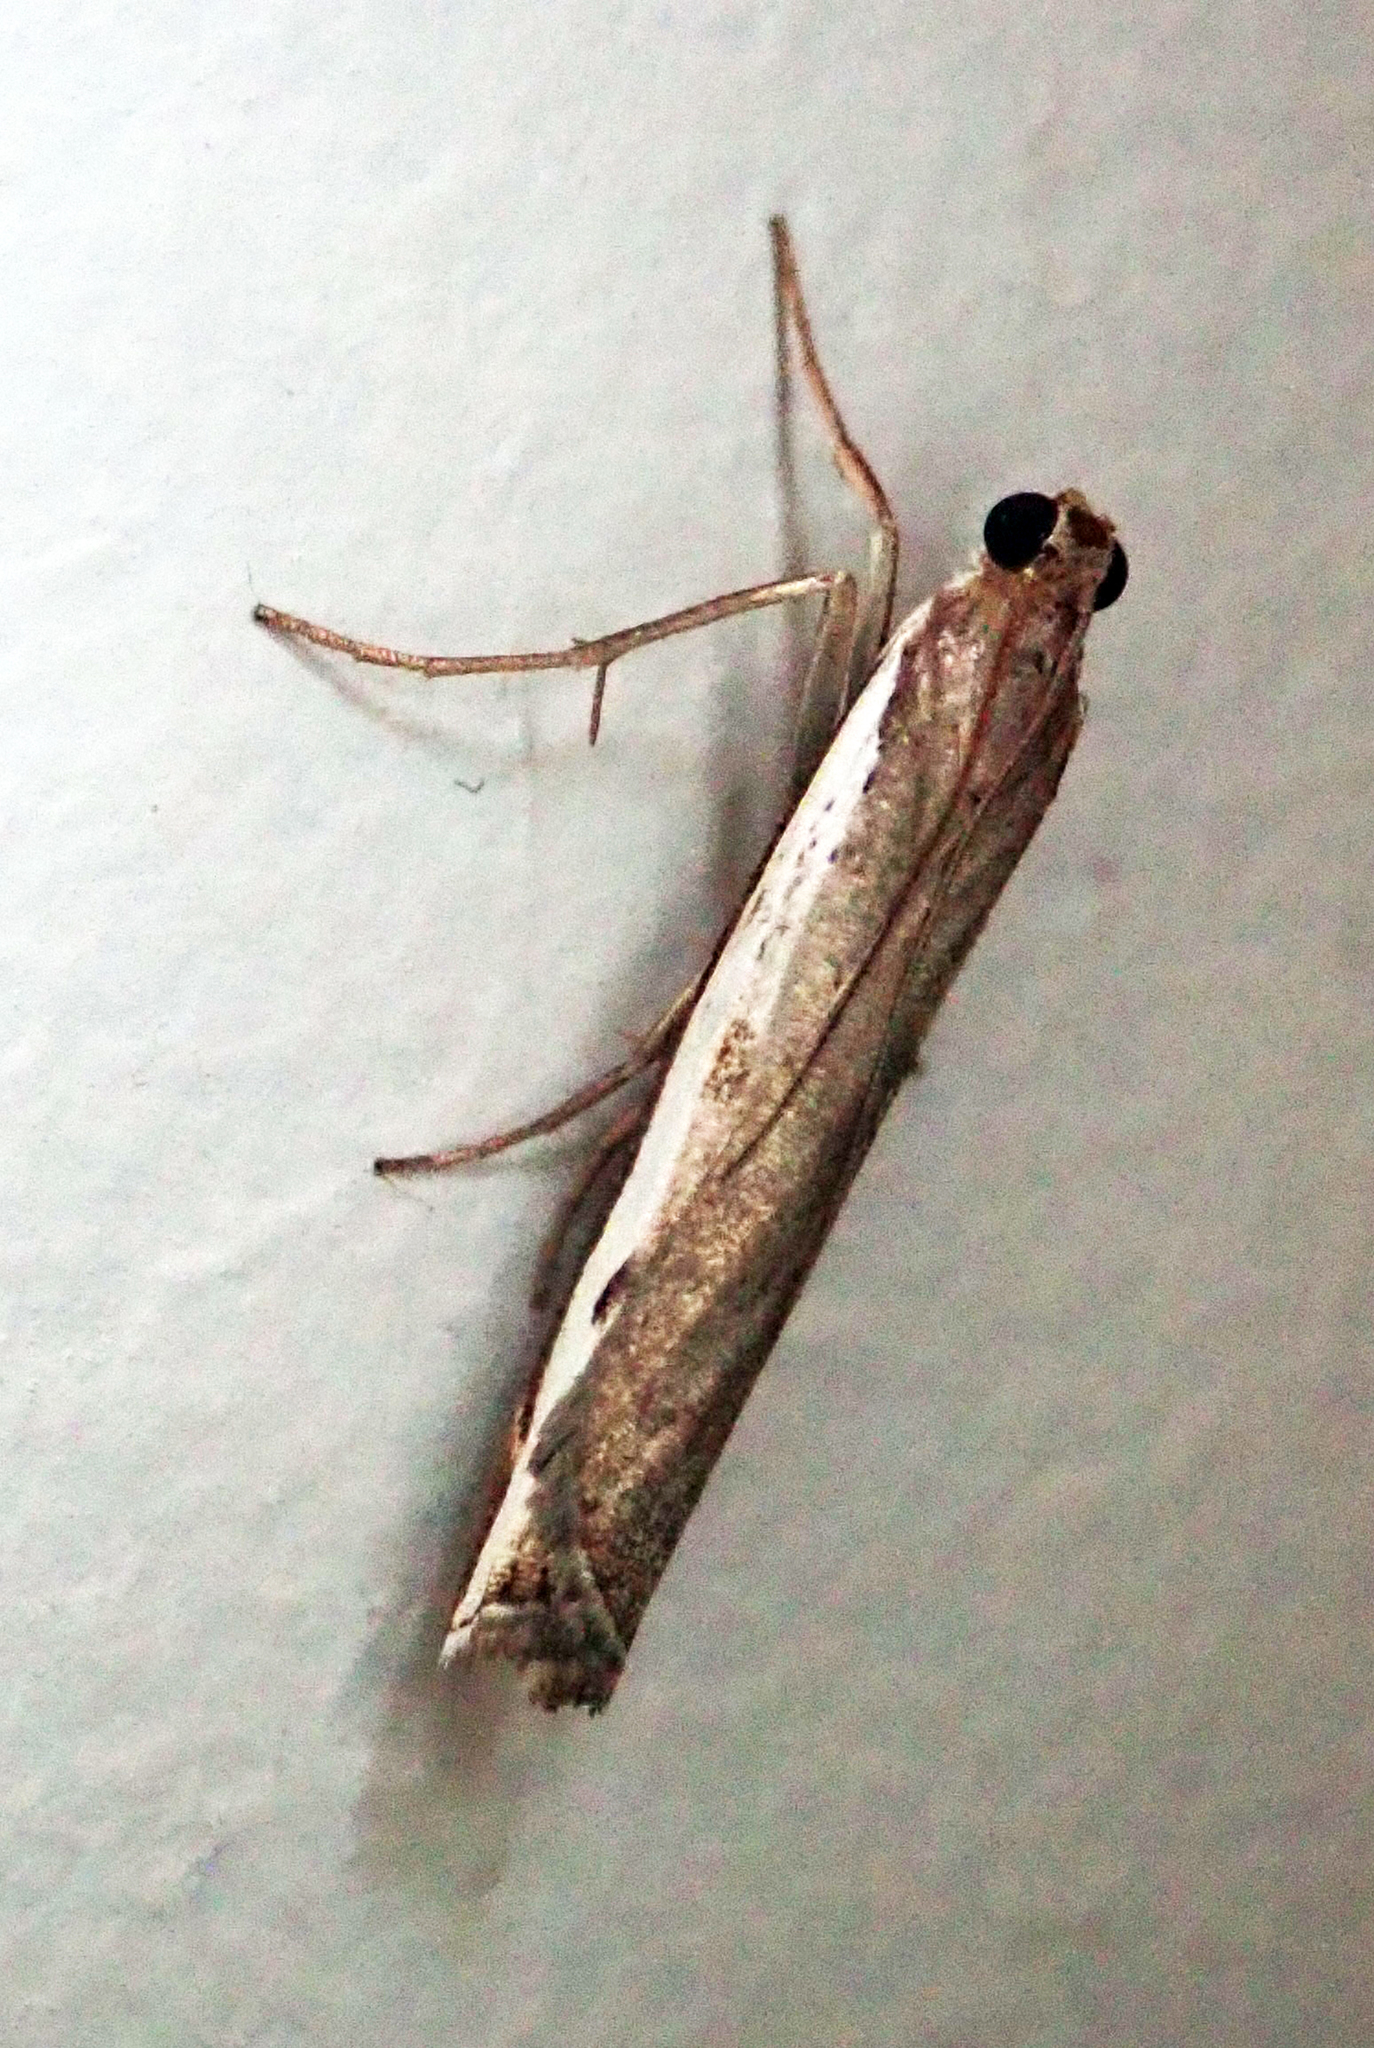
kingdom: Animalia
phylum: Arthropoda
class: Insecta
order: Lepidoptera
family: Crambidae
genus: Orocrambus
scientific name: Orocrambus flexuosellus
